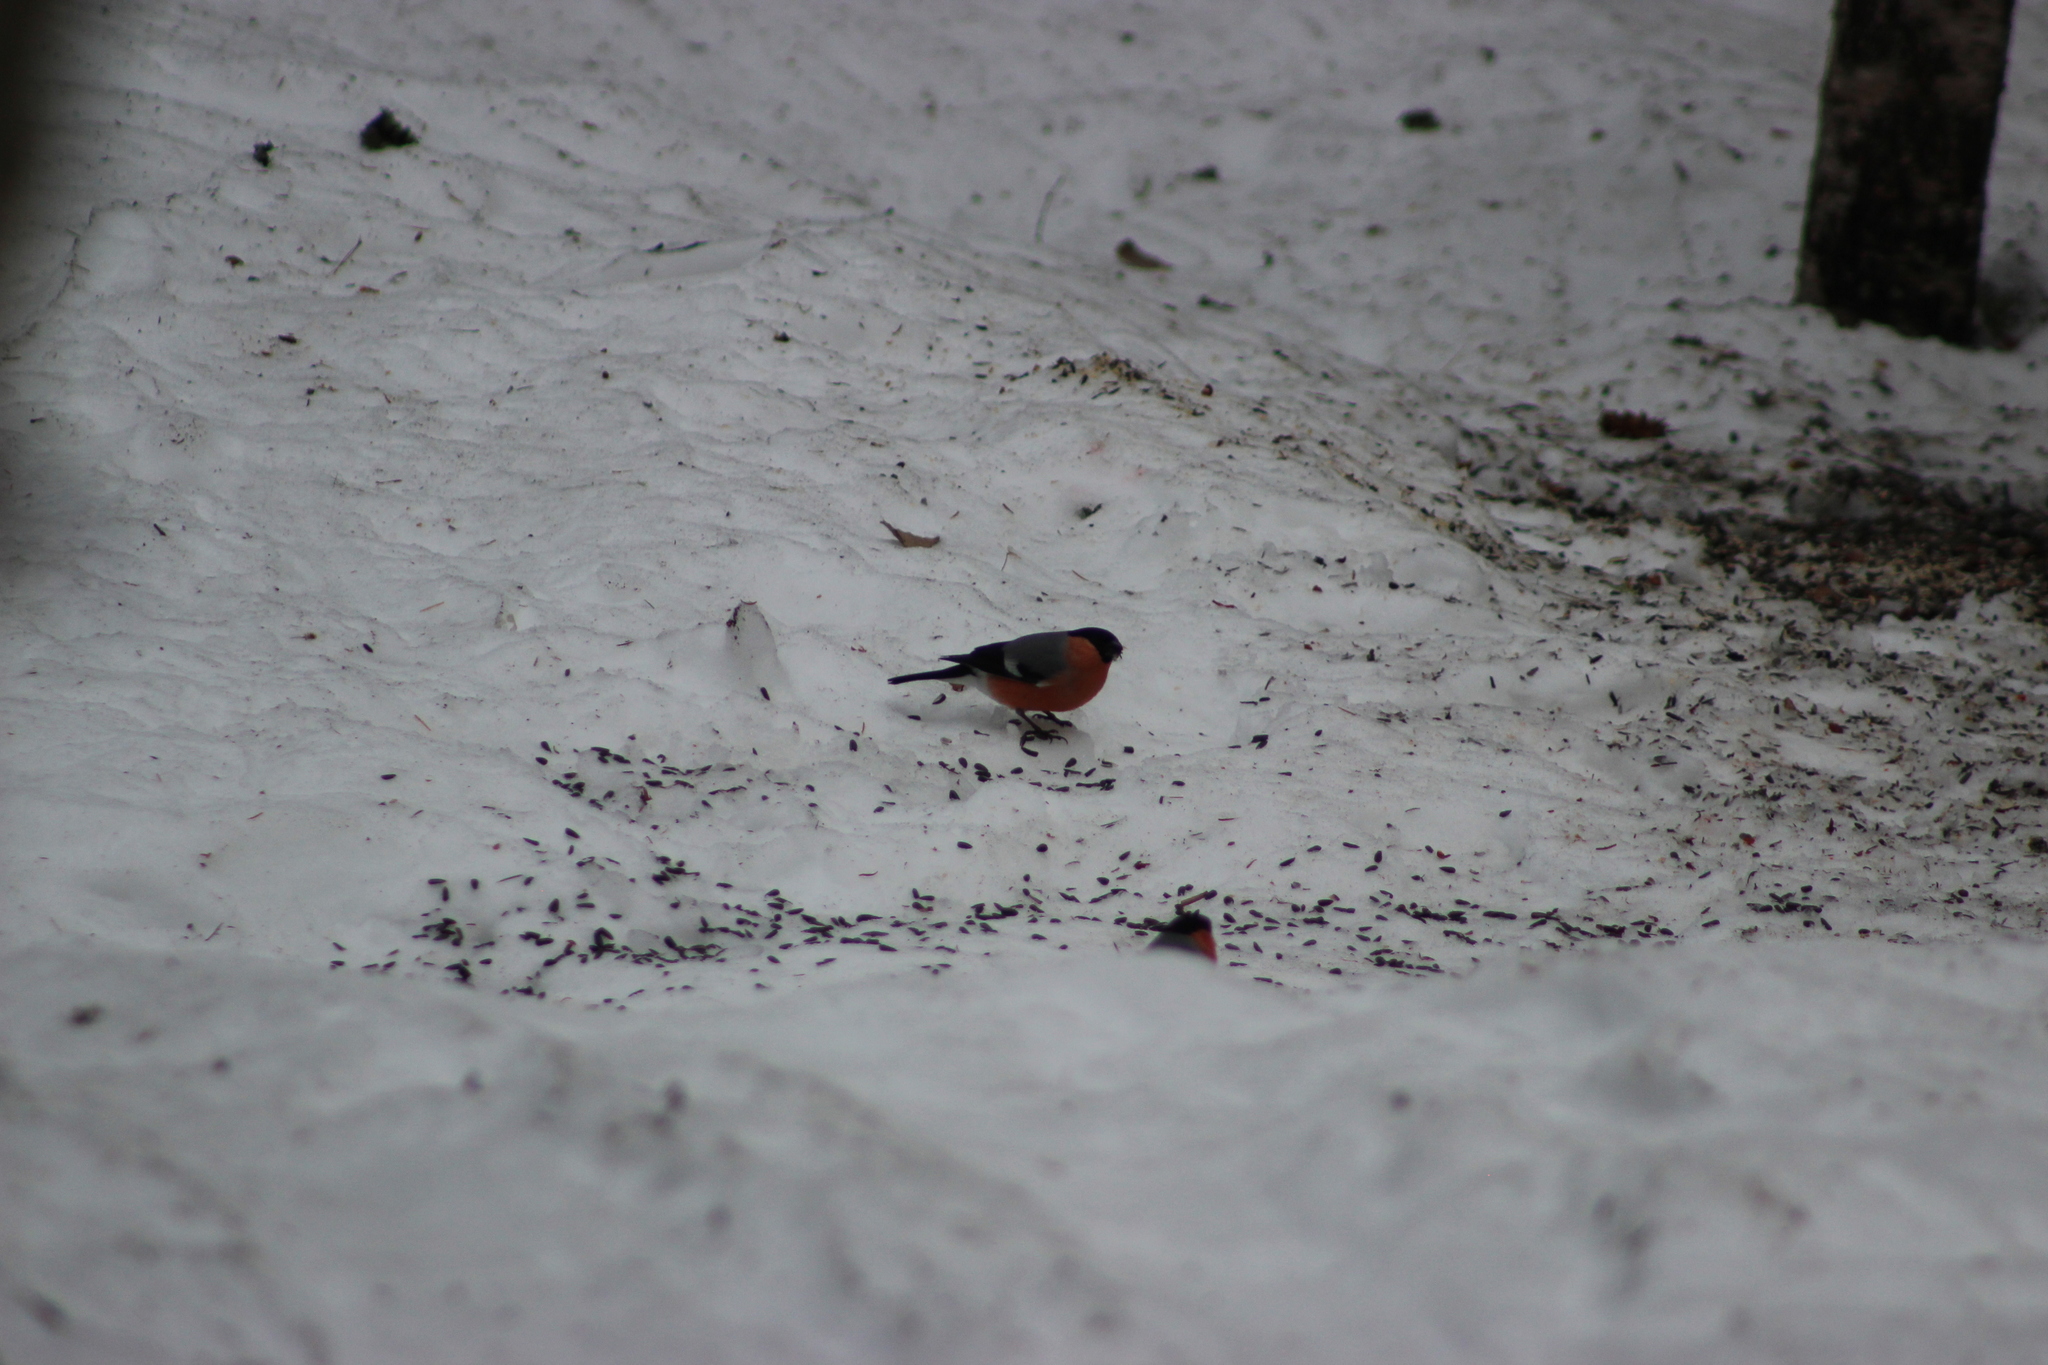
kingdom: Animalia
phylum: Chordata
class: Aves
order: Passeriformes
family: Fringillidae
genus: Pyrrhula
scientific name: Pyrrhula pyrrhula
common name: Eurasian bullfinch
